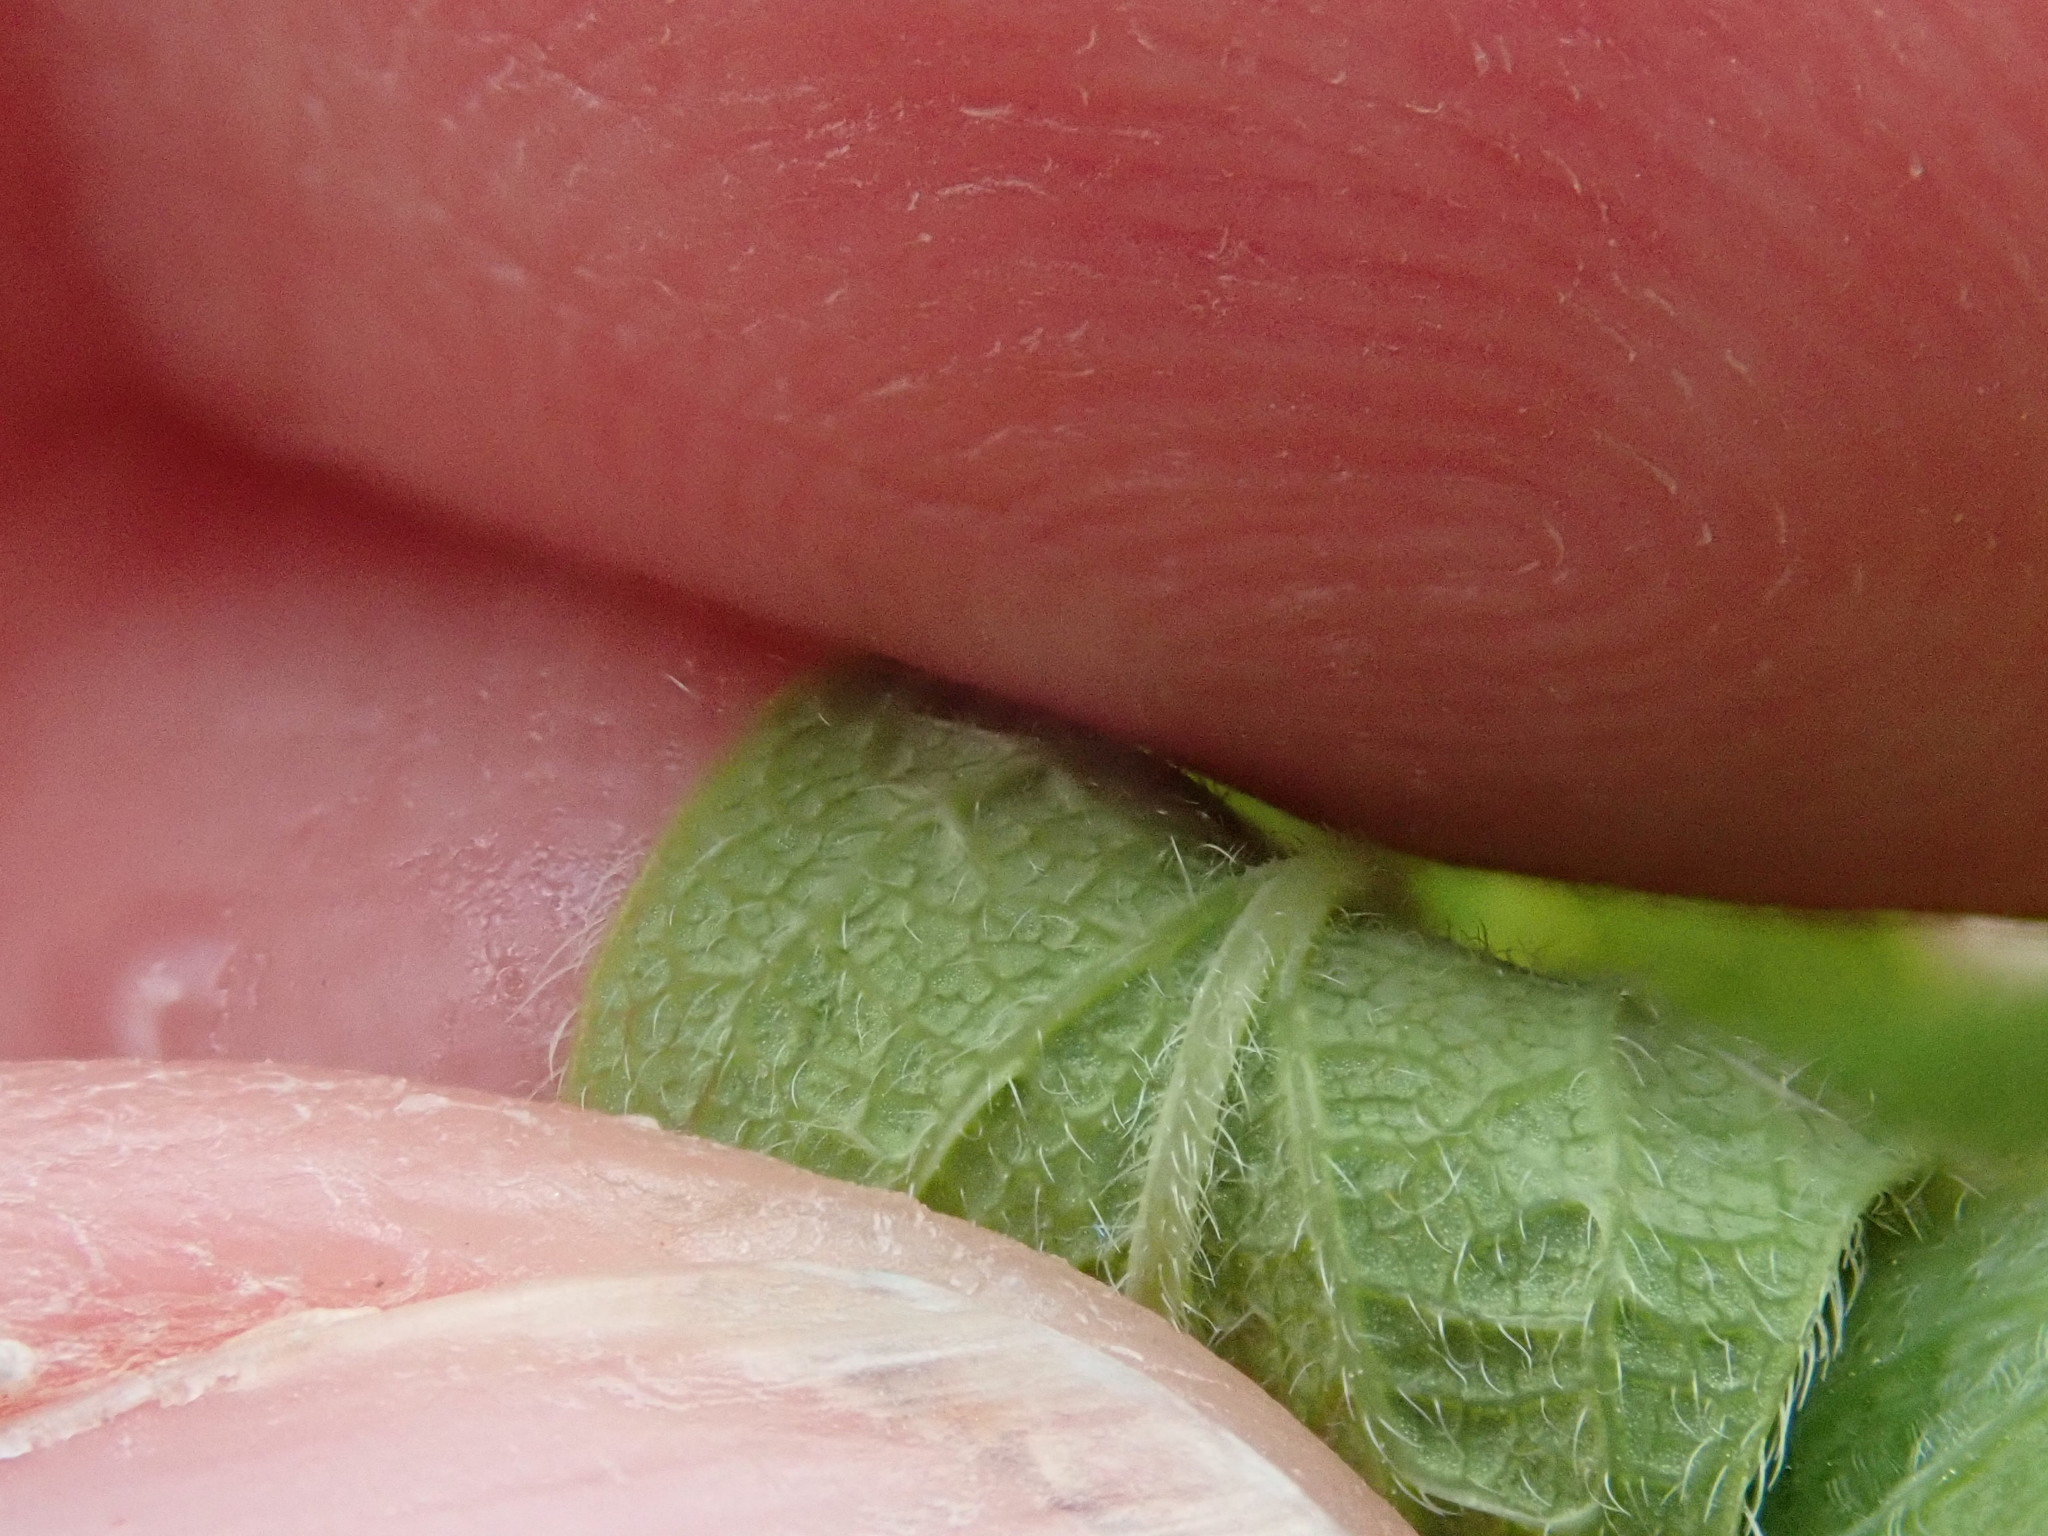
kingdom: Plantae
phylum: Tracheophyta
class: Magnoliopsida
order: Dipsacales
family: Caprifoliaceae
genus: Lonicera
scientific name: Lonicera villosa
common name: Mountain fly-honeysuckle
